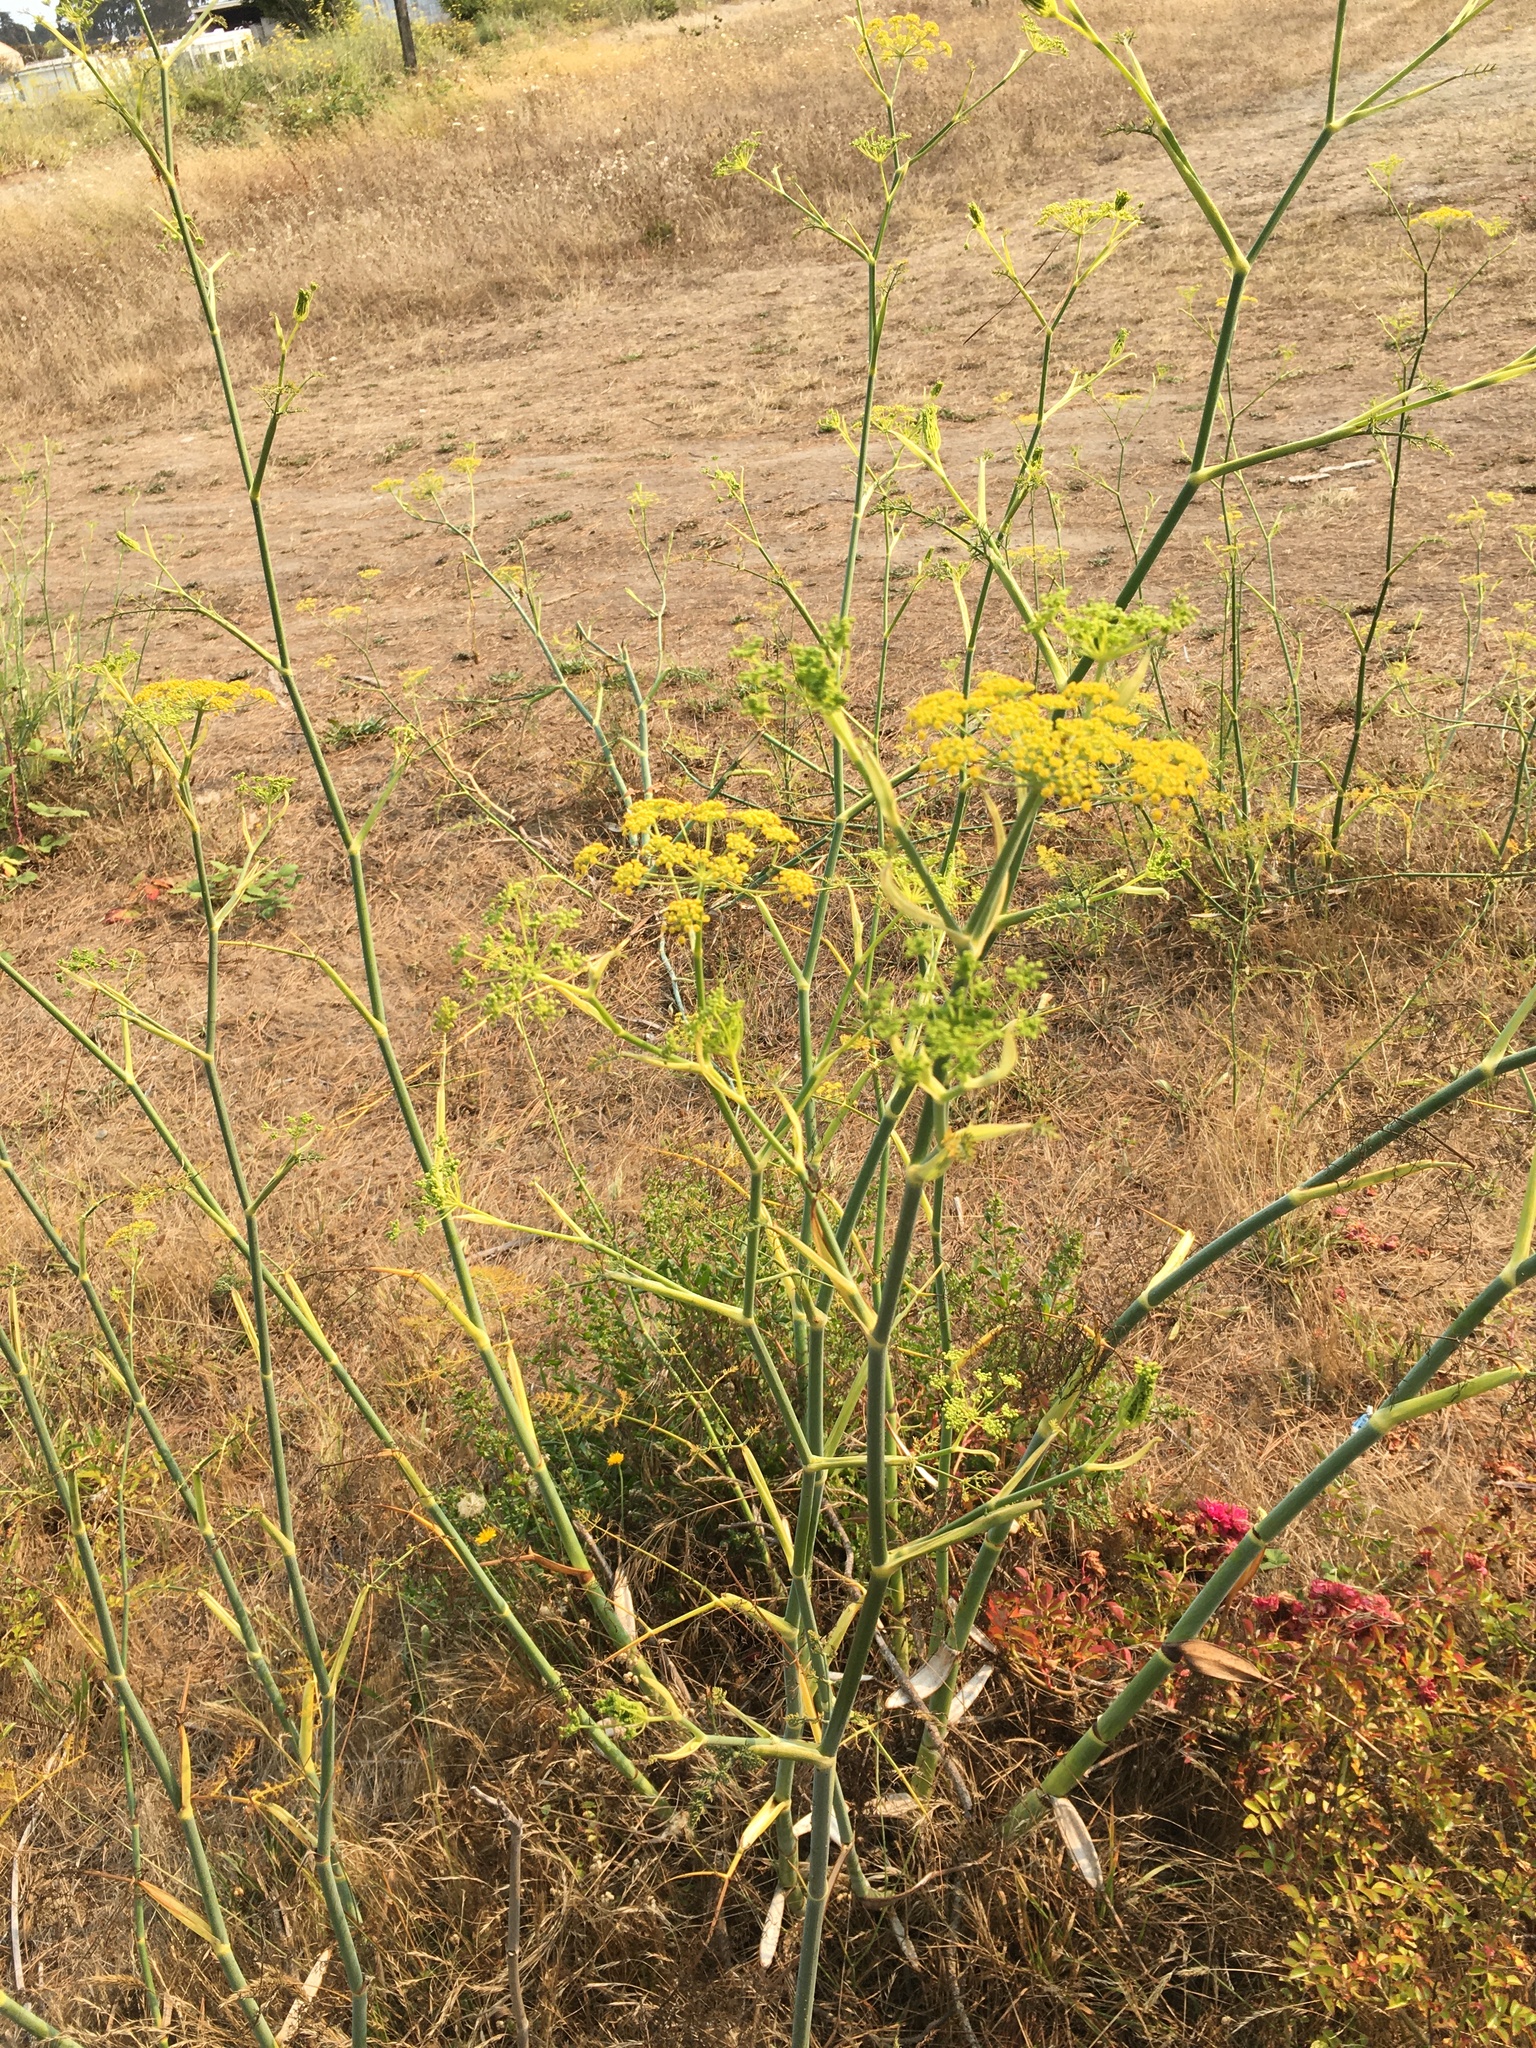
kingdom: Plantae
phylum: Tracheophyta
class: Magnoliopsida
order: Apiales
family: Apiaceae
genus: Foeniculum
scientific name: Foeniculum vulgare
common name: Fennel
